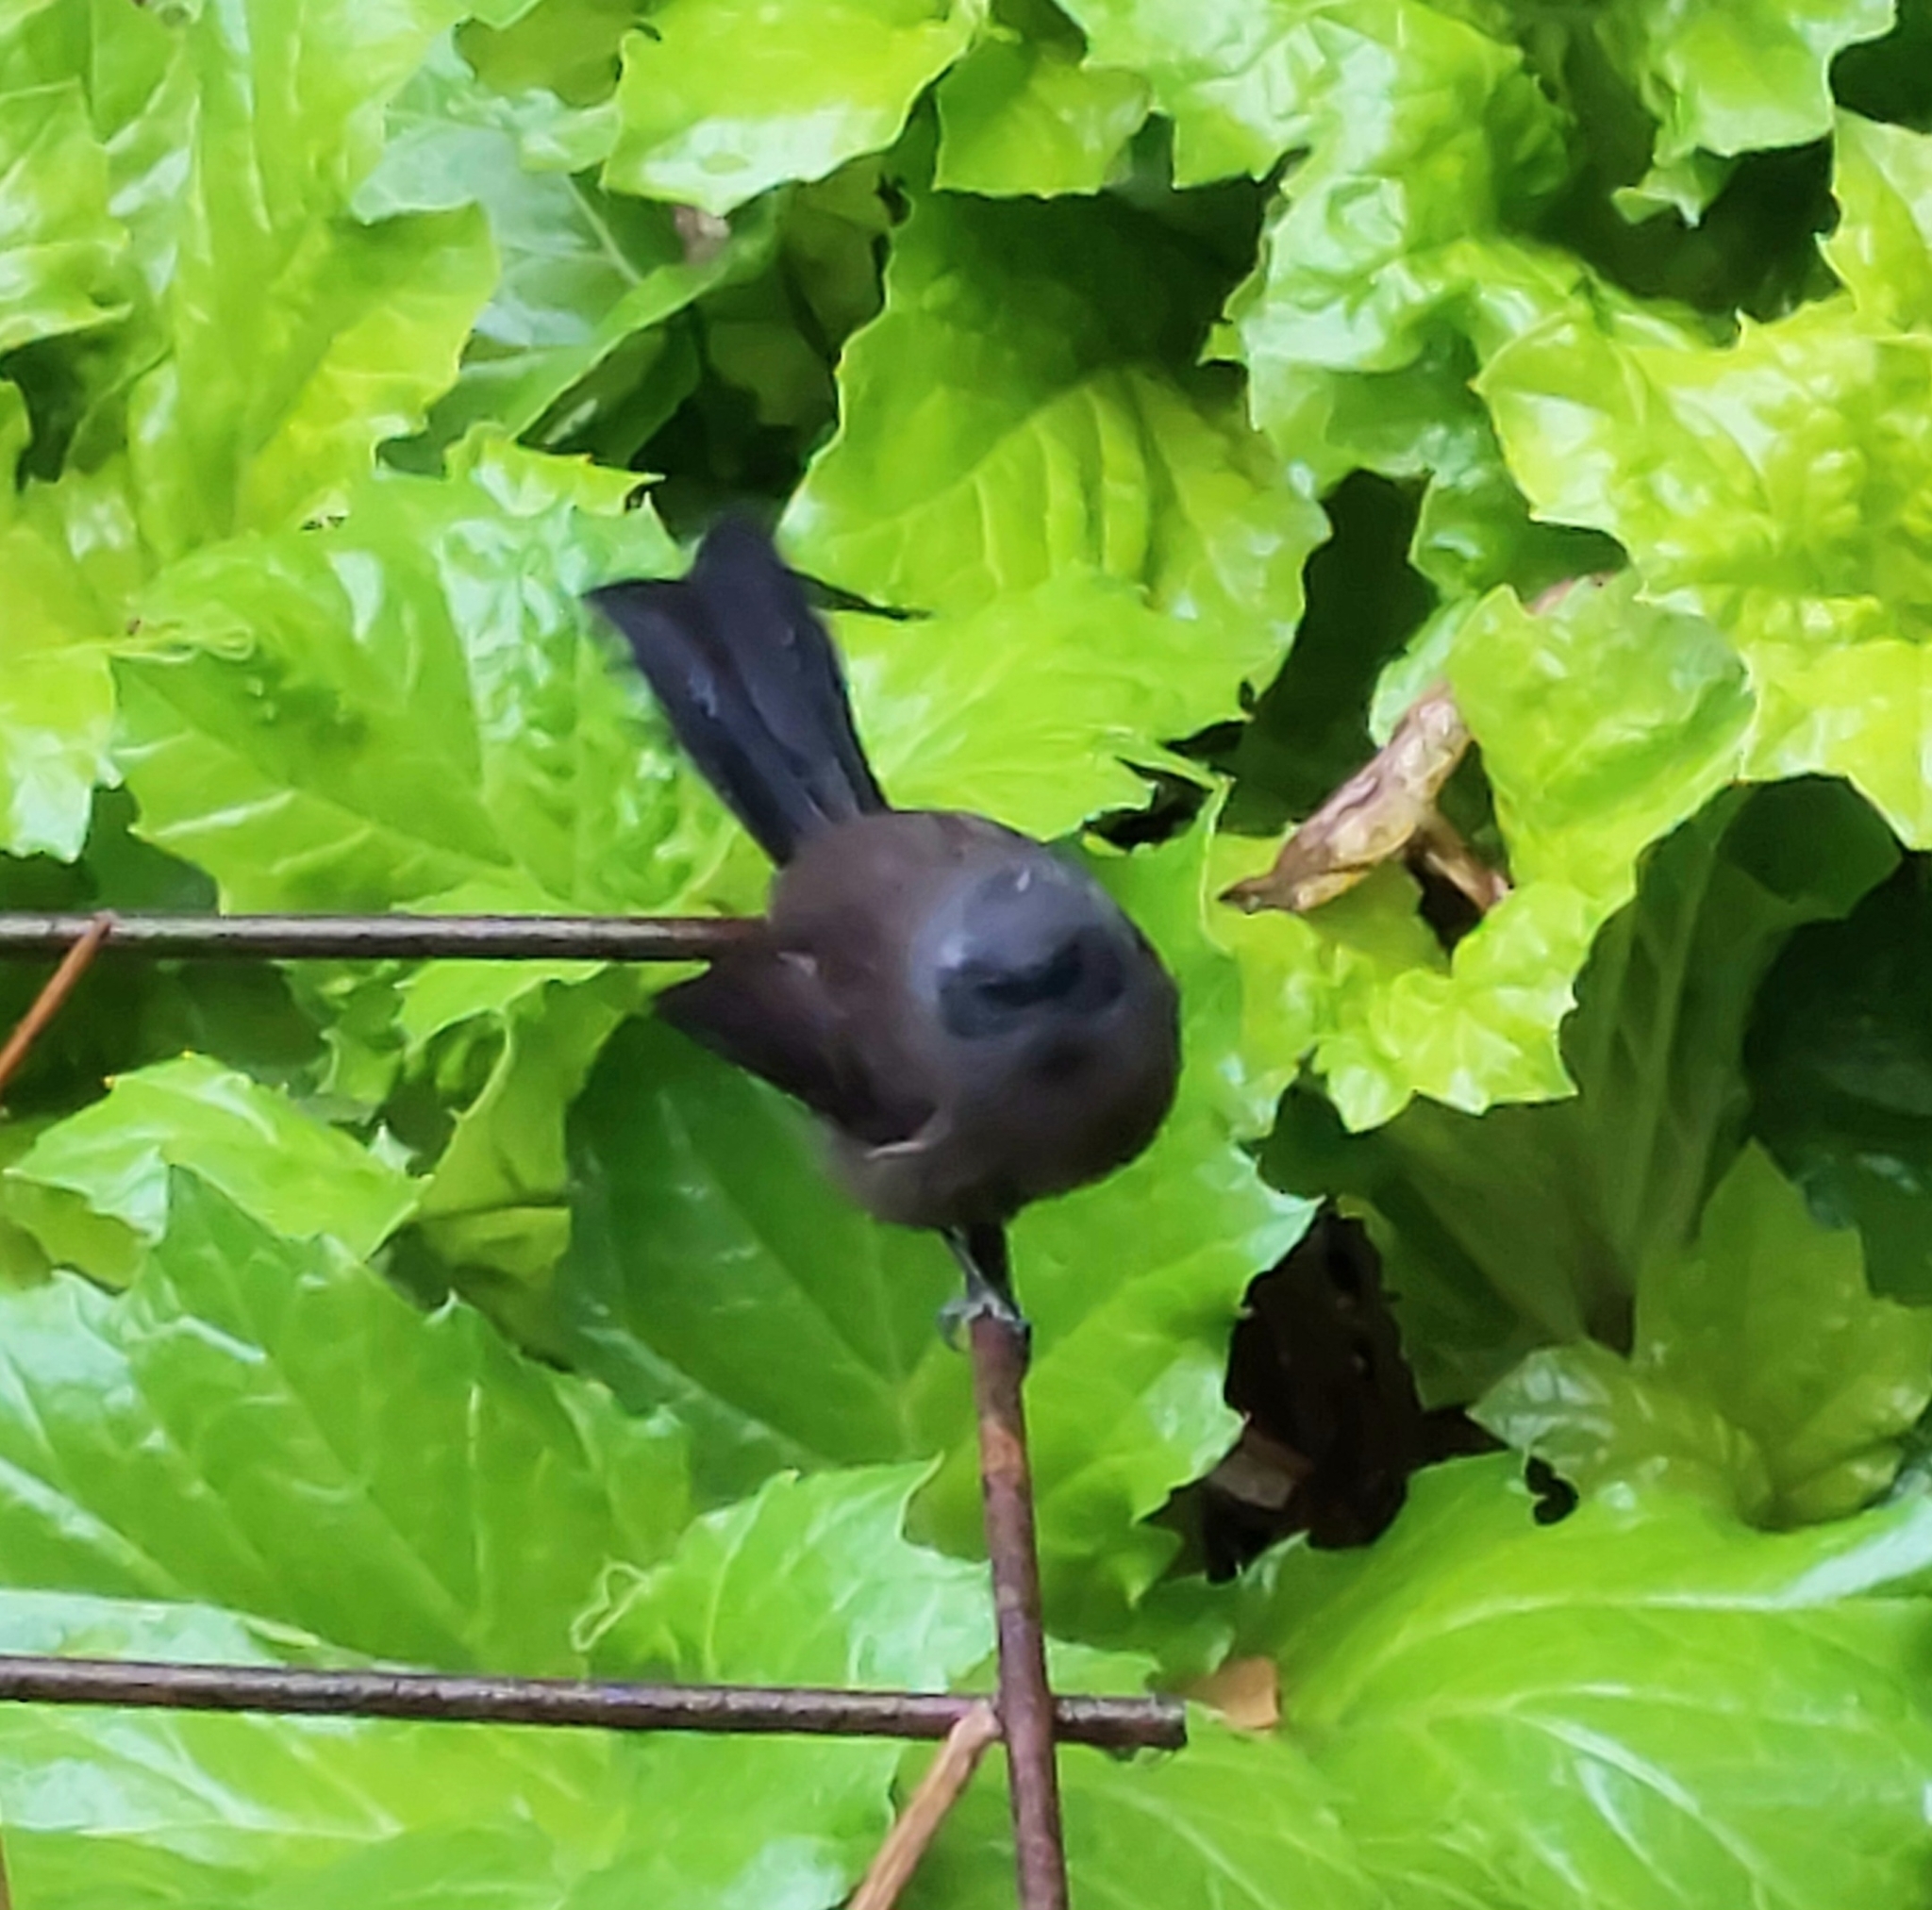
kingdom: Animalia
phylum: Chordata
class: Aves
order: Passeriformes
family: Rhipiduridae
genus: Rhipidura
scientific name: Rhipidura fuliginosa
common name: New zealand fantail
